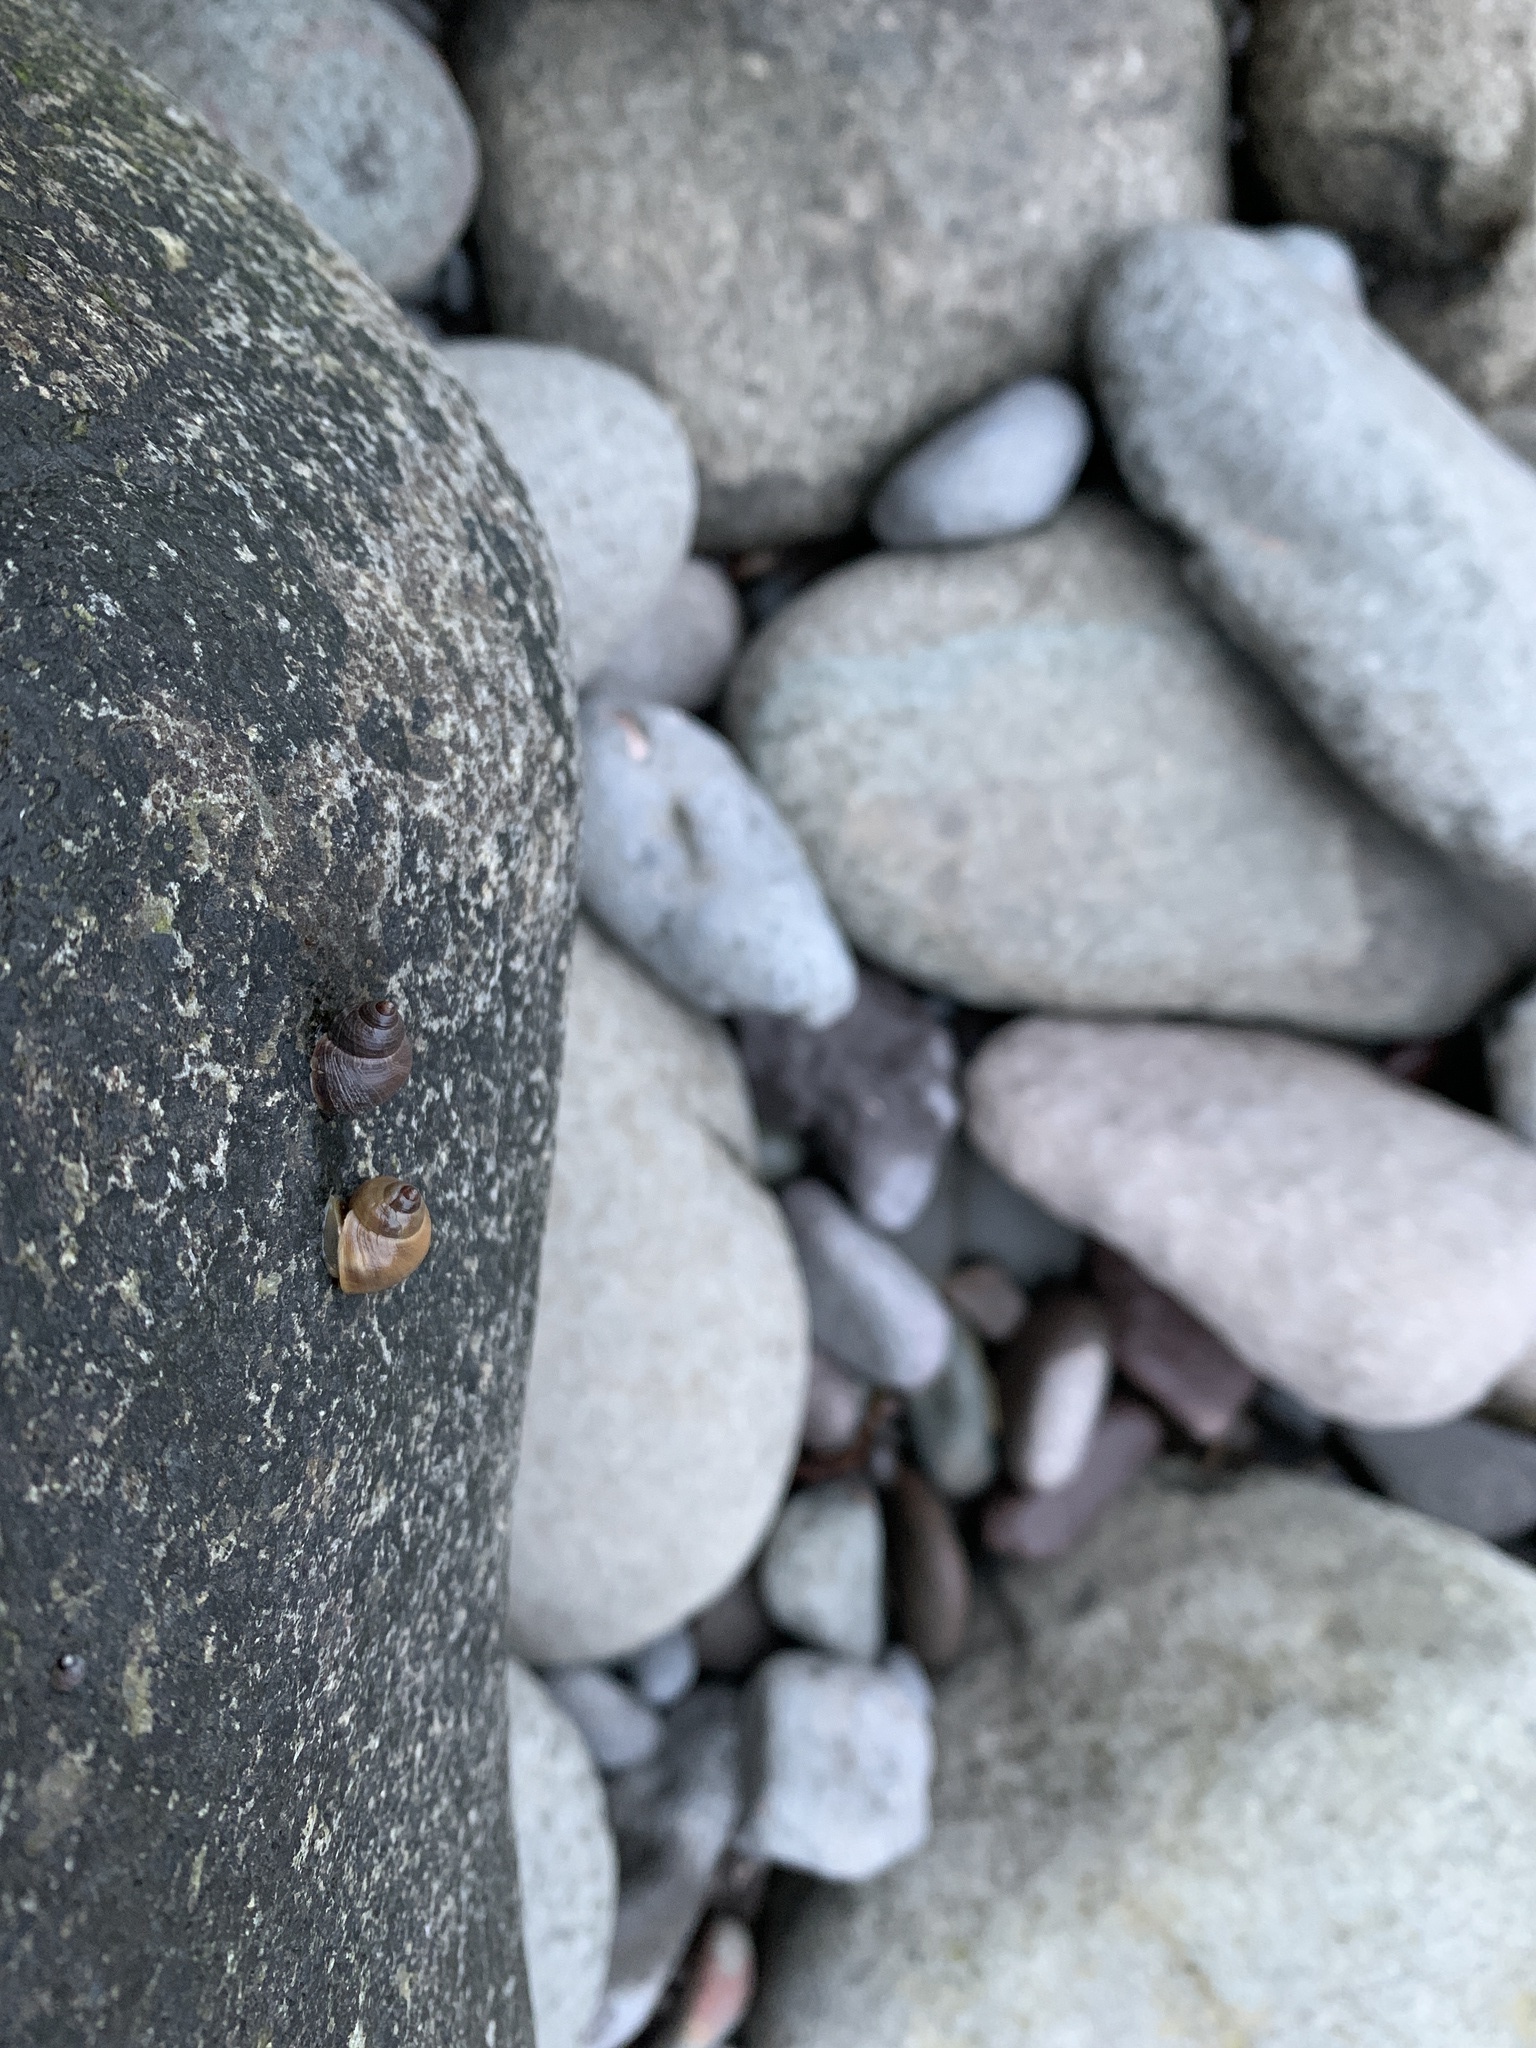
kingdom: Animalia
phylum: Mollusca
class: Gastropoda
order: Littorinimorpha
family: Littorinidae
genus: Littorina
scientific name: Littorina saxatilis
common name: Black-lined periwinkle
